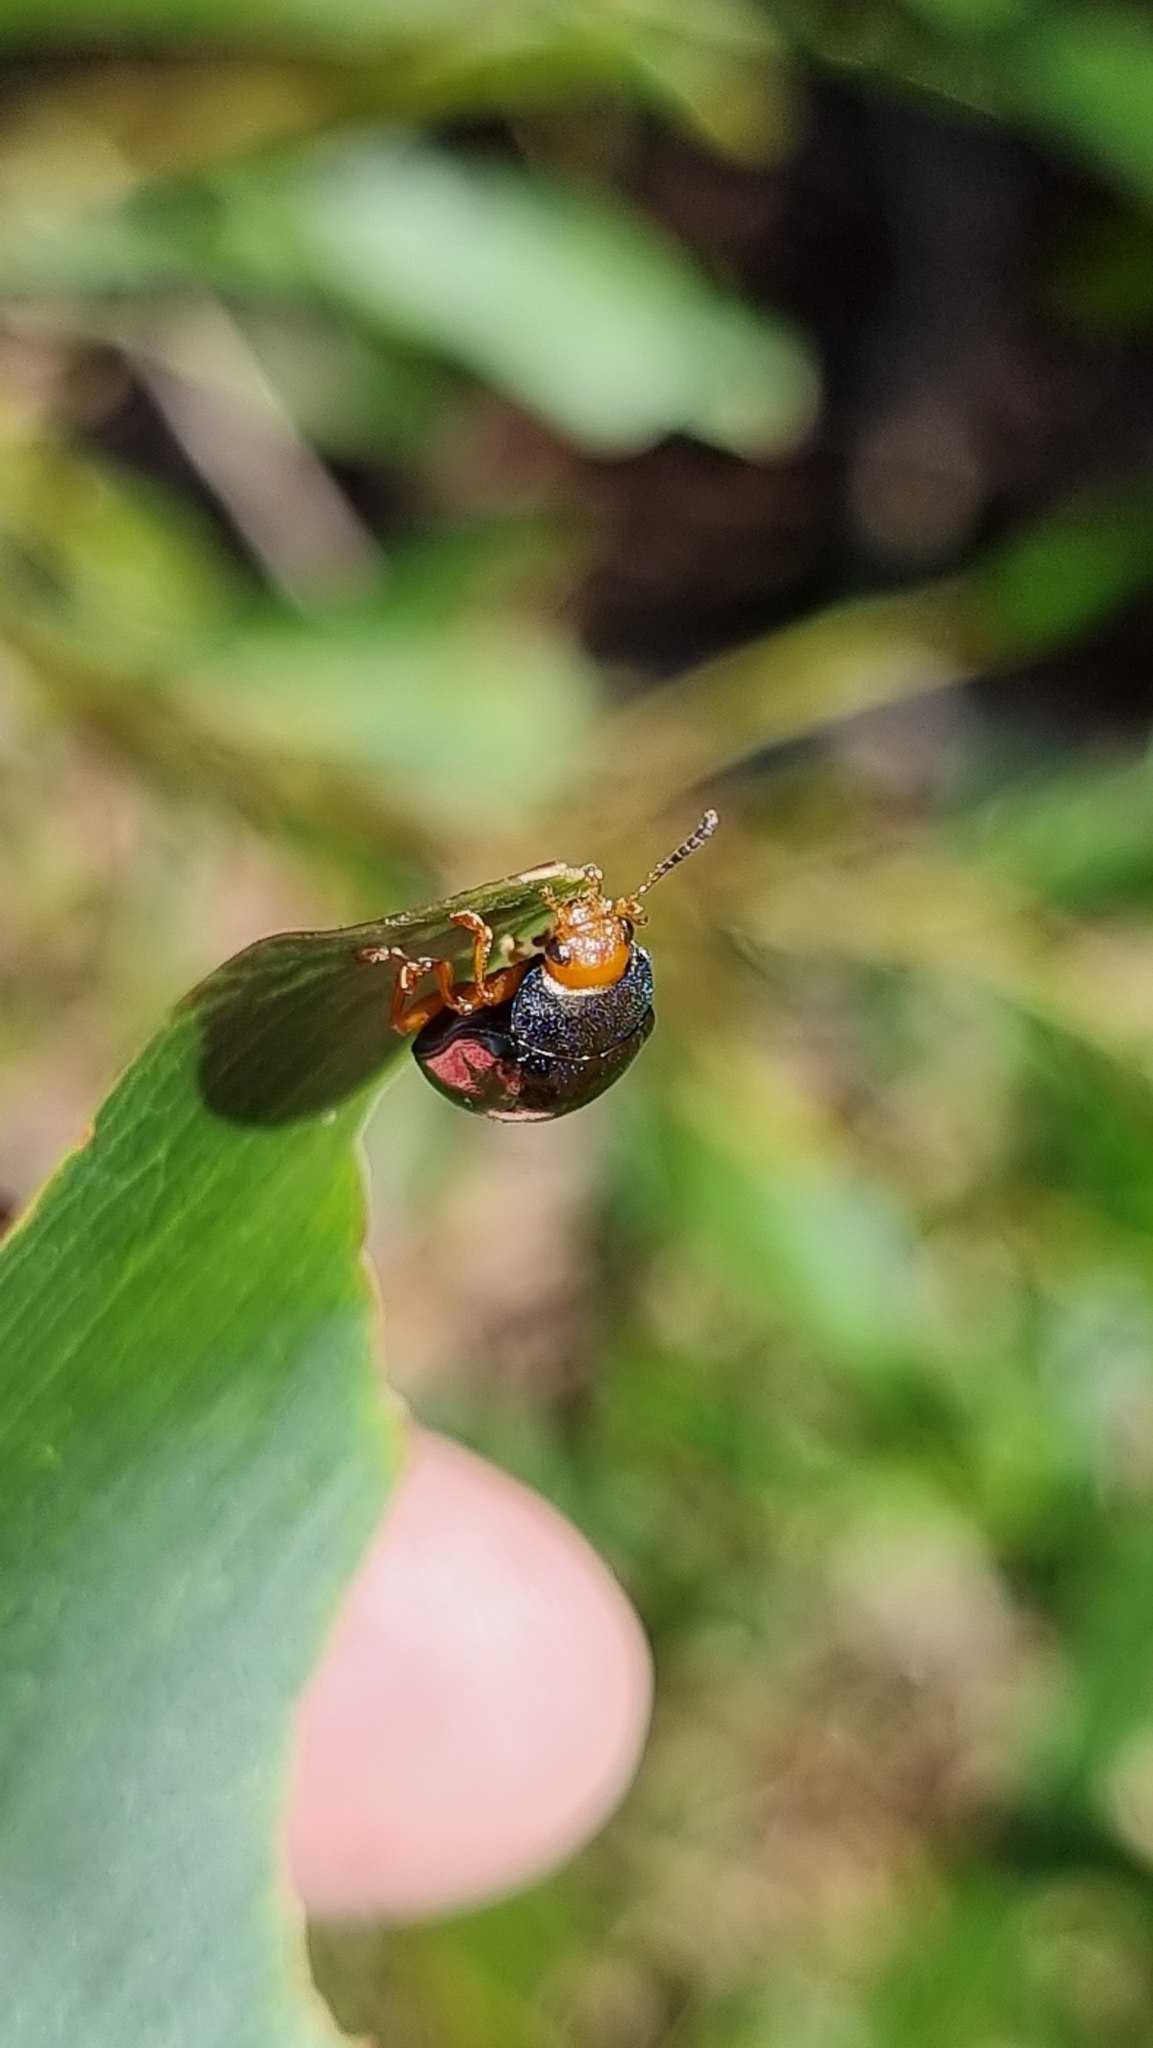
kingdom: Animalia
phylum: Arthropoda
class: Insecta
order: Coleoptera
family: Chrysomelidae
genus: Calomela
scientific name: Calomela
